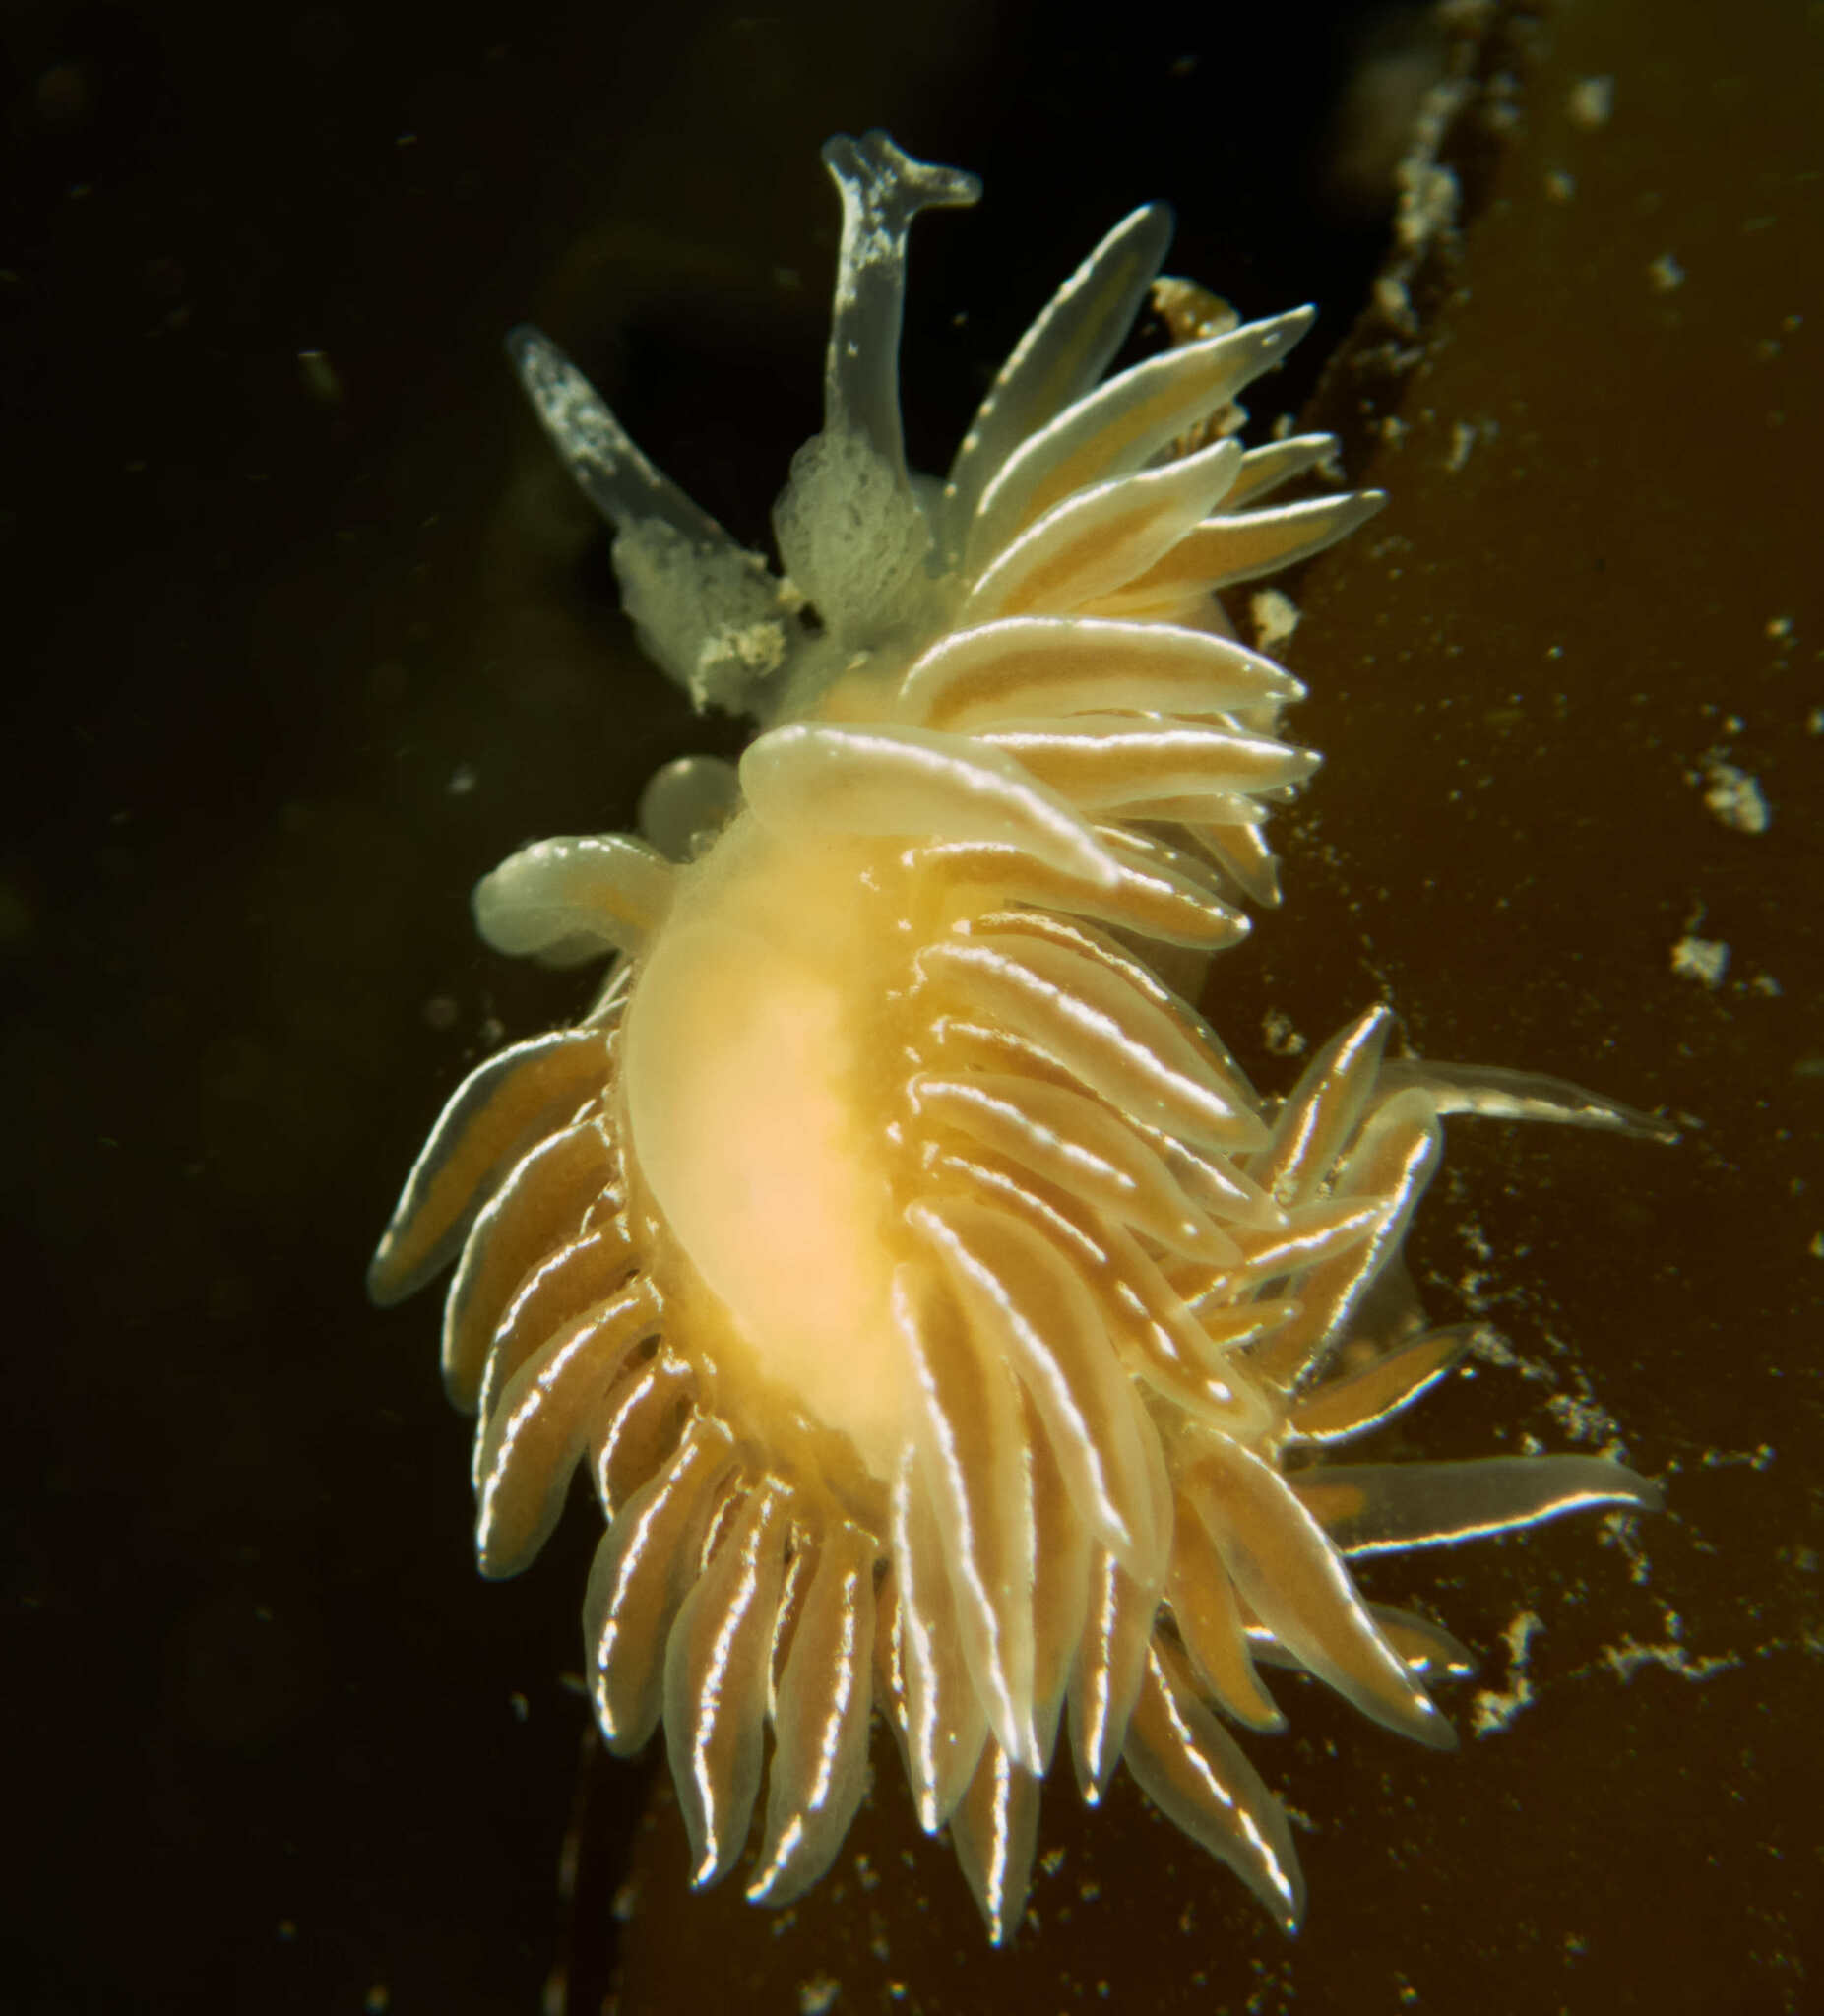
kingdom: Animalia
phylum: Mollusca
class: Gastropoda
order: Nudibranchia
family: Proctonotidae
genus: Caldukia
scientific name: Caldukia albolineata
